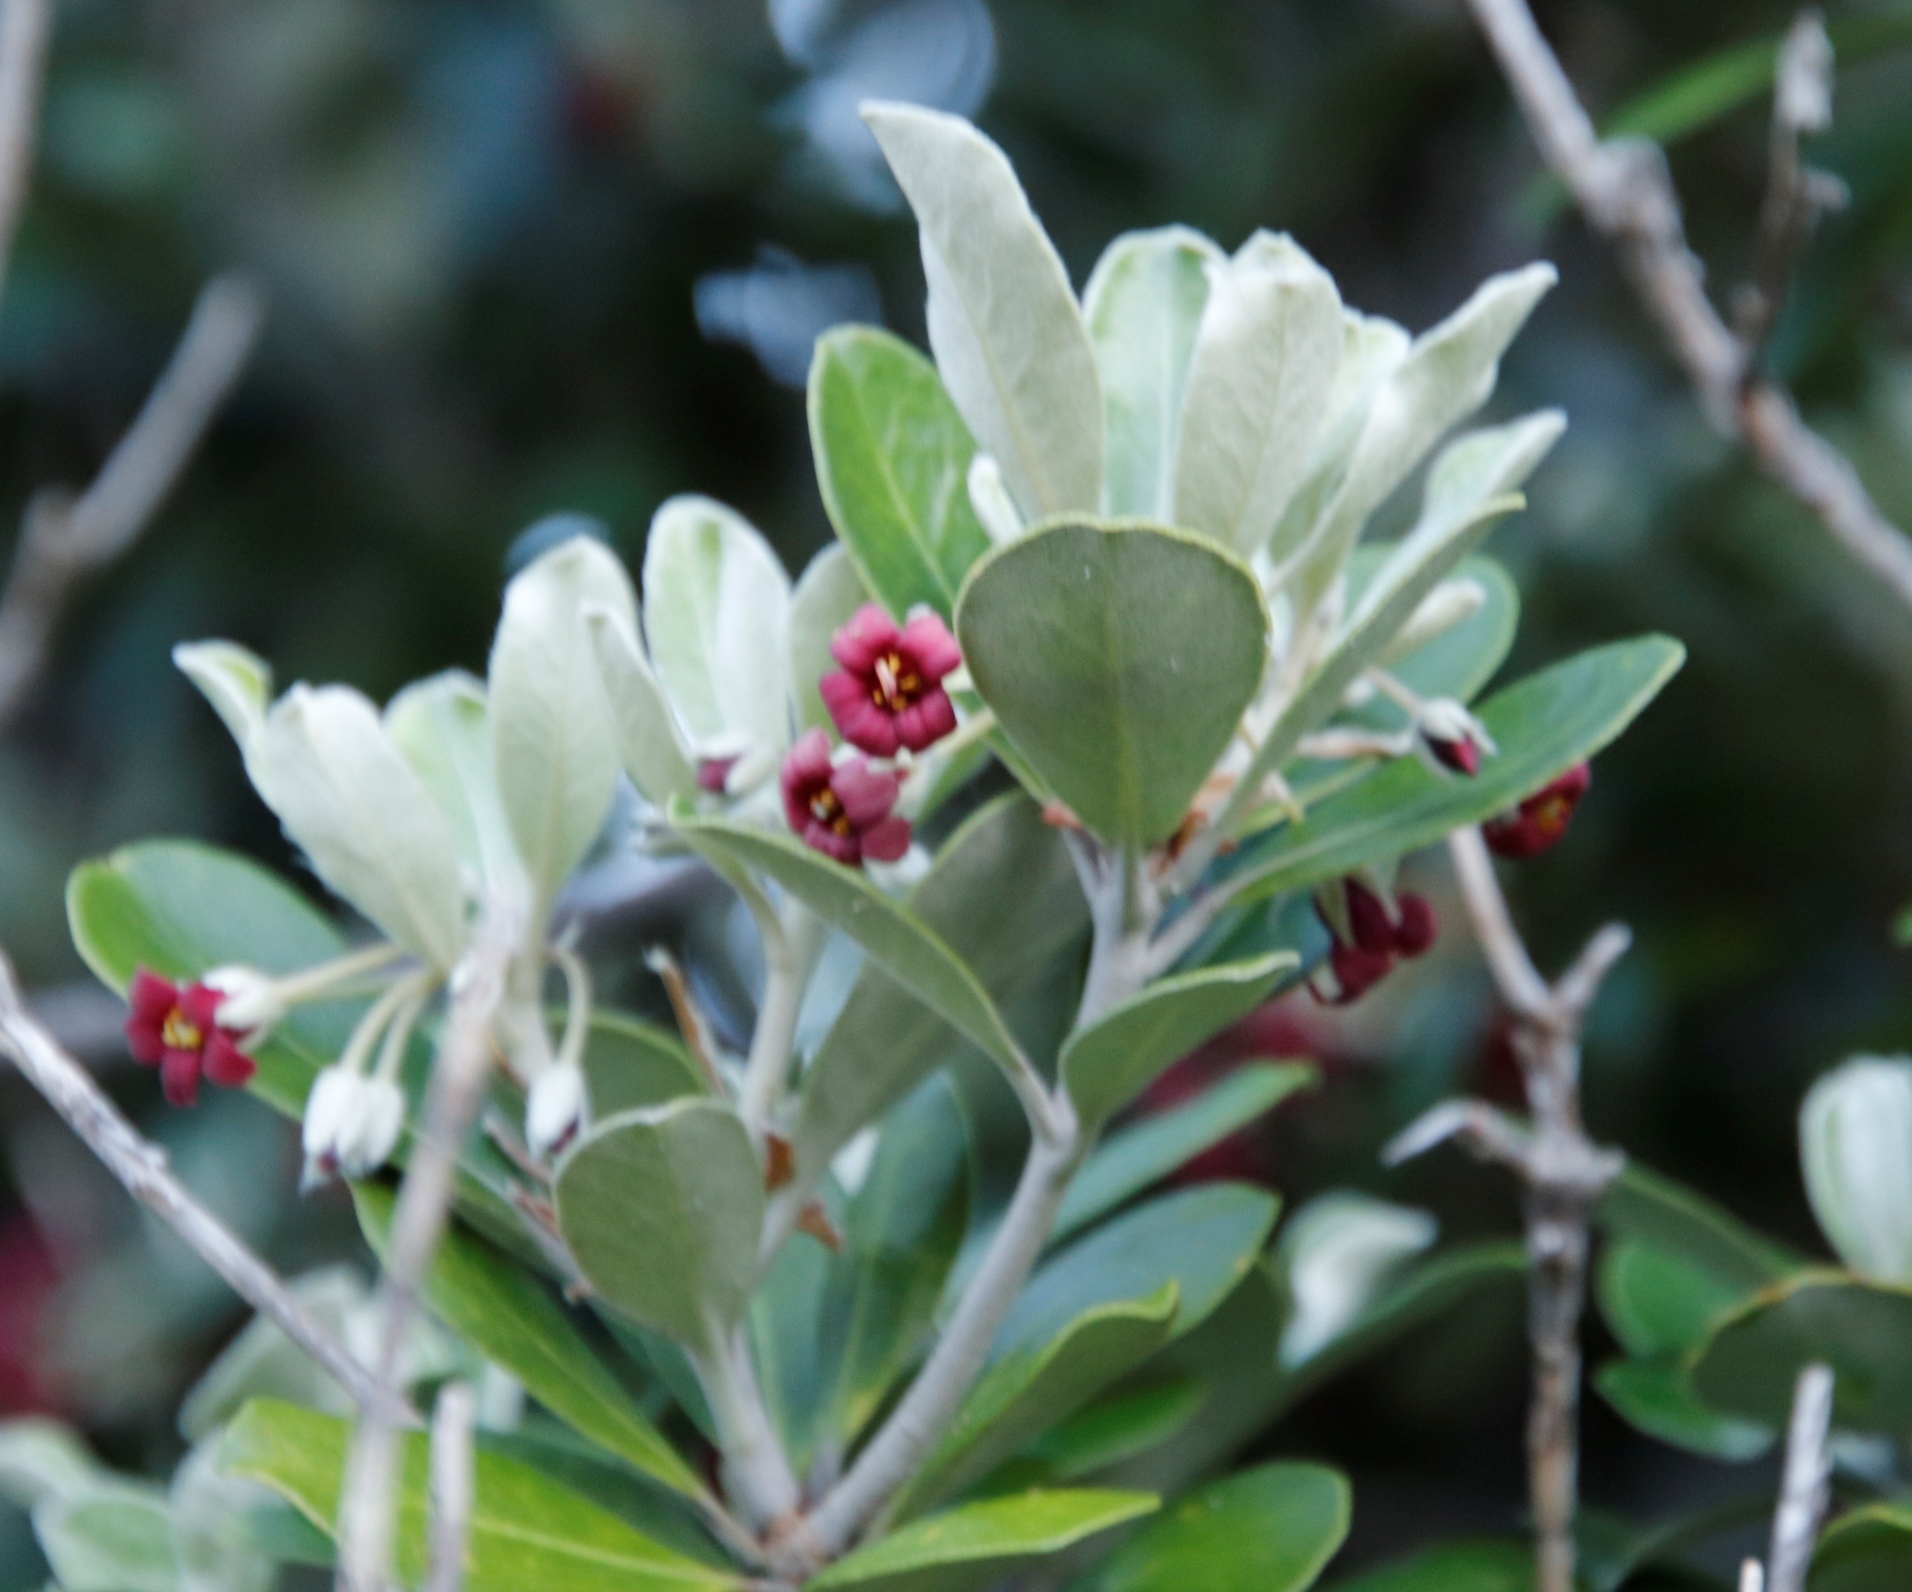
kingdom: Plantae
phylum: Tracheophyta
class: Magnoliopsida
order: Apiales
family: Pittosporaceae
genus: Pittosporum
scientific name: Pittosporum crassifolium
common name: Karo
